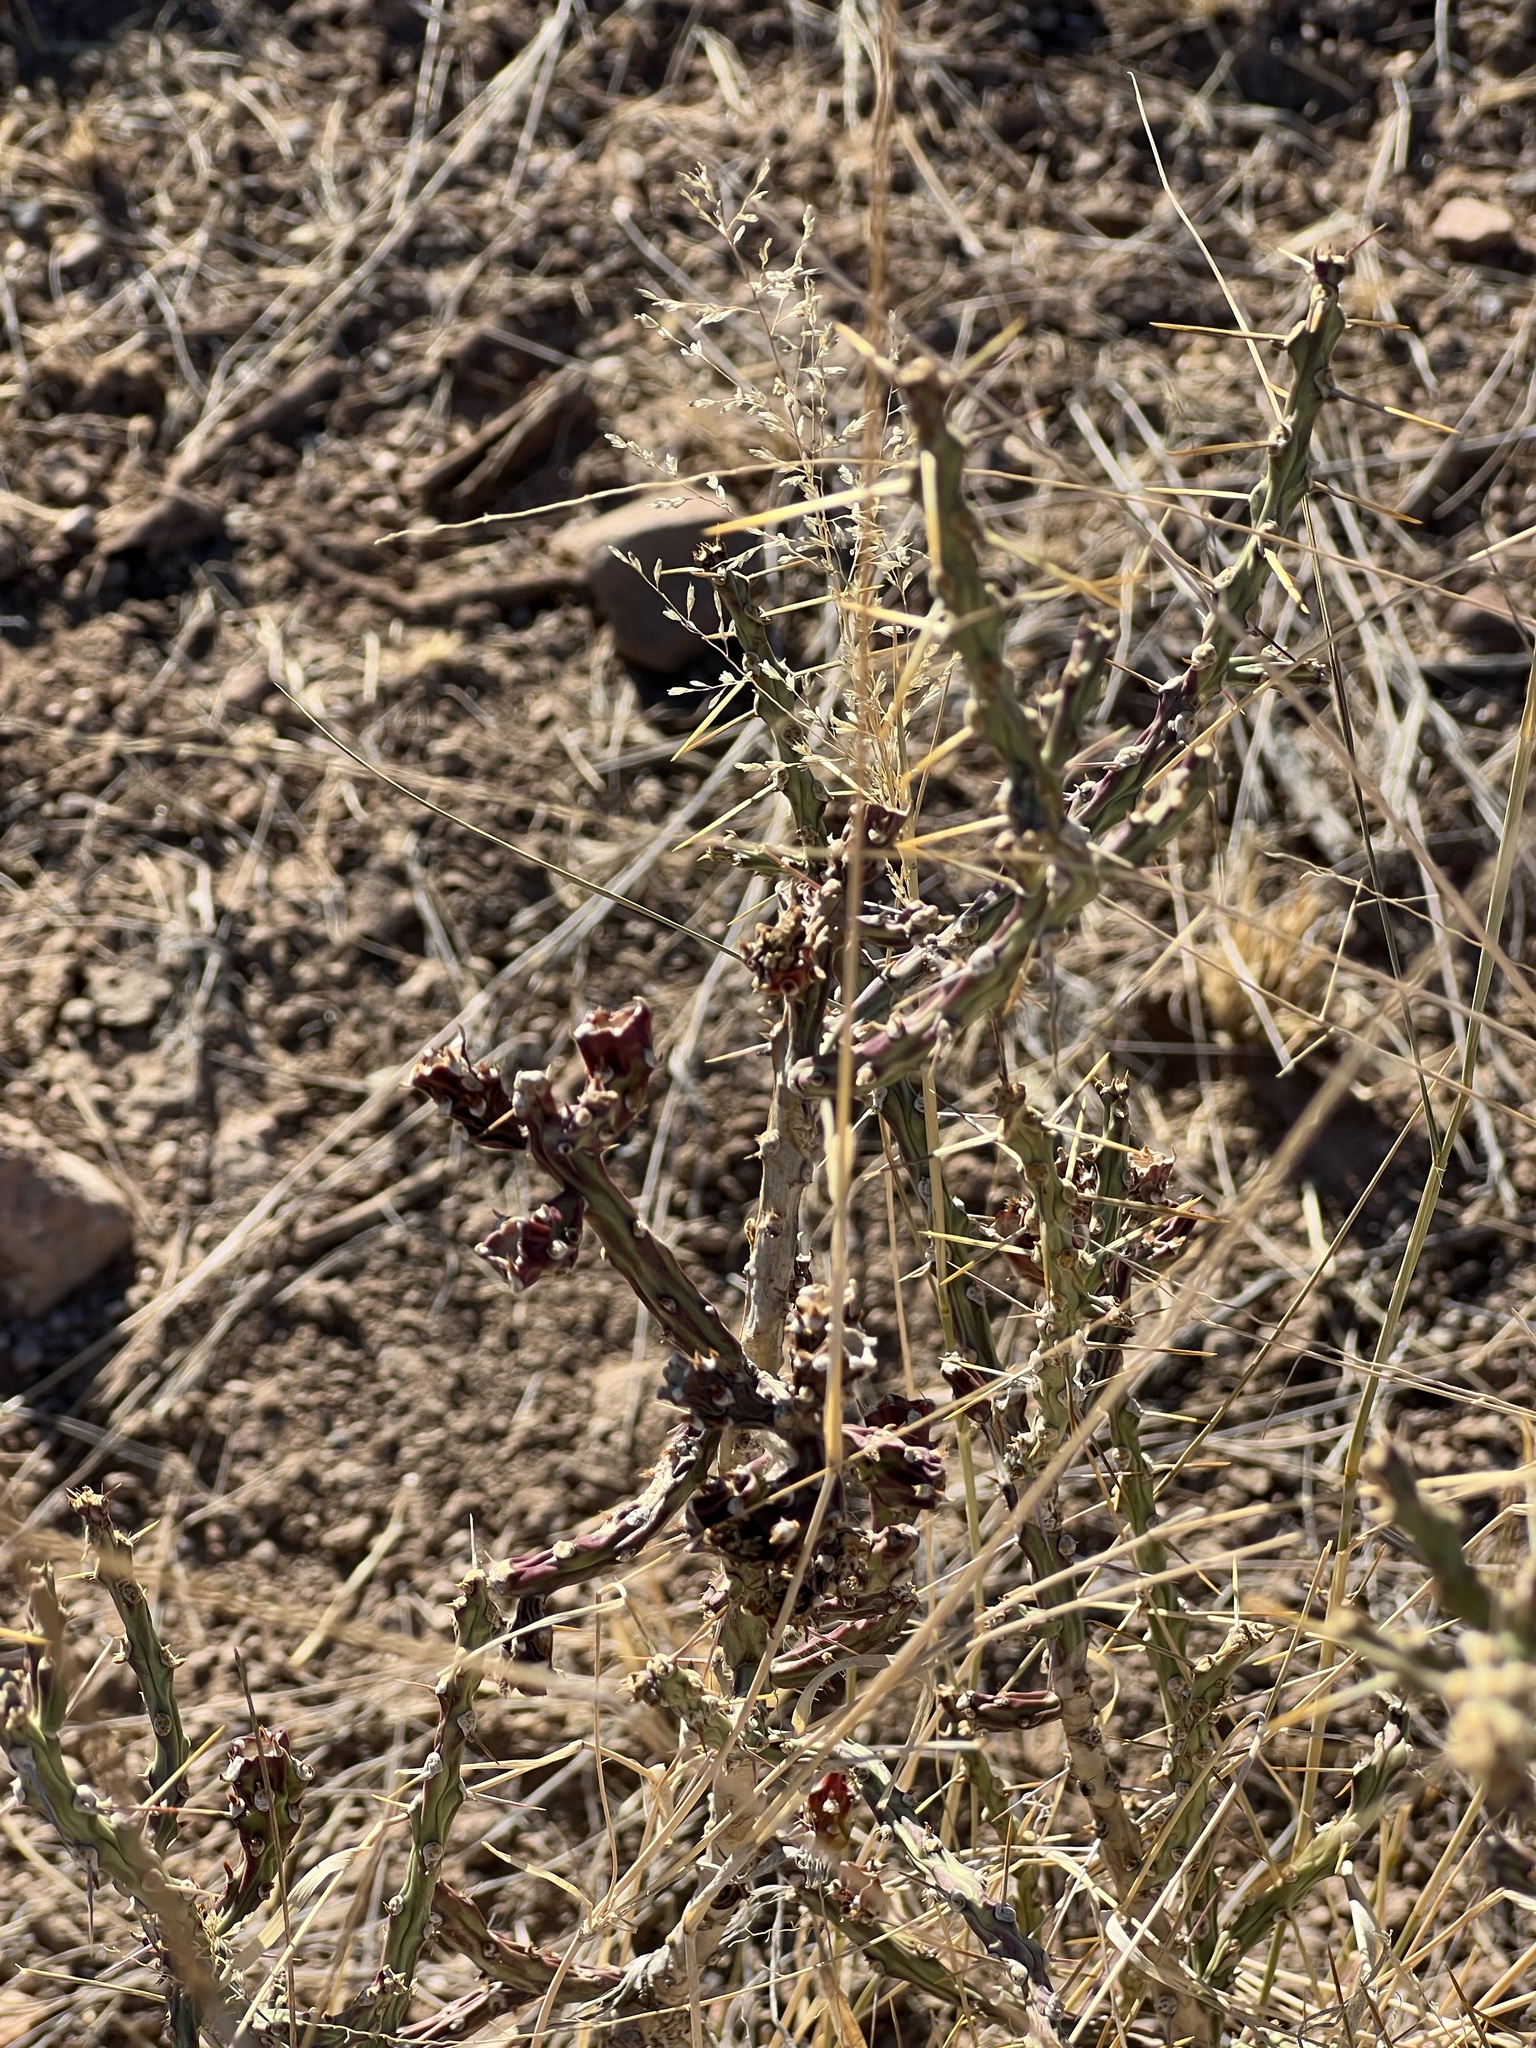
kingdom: Plantae
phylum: Tracheophyta
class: Magnoliopsida
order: Caryophyllales
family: Cactaceae
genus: Cylindropuntia
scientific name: Cylindropuntia leptocaulis
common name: Christmas cactus
